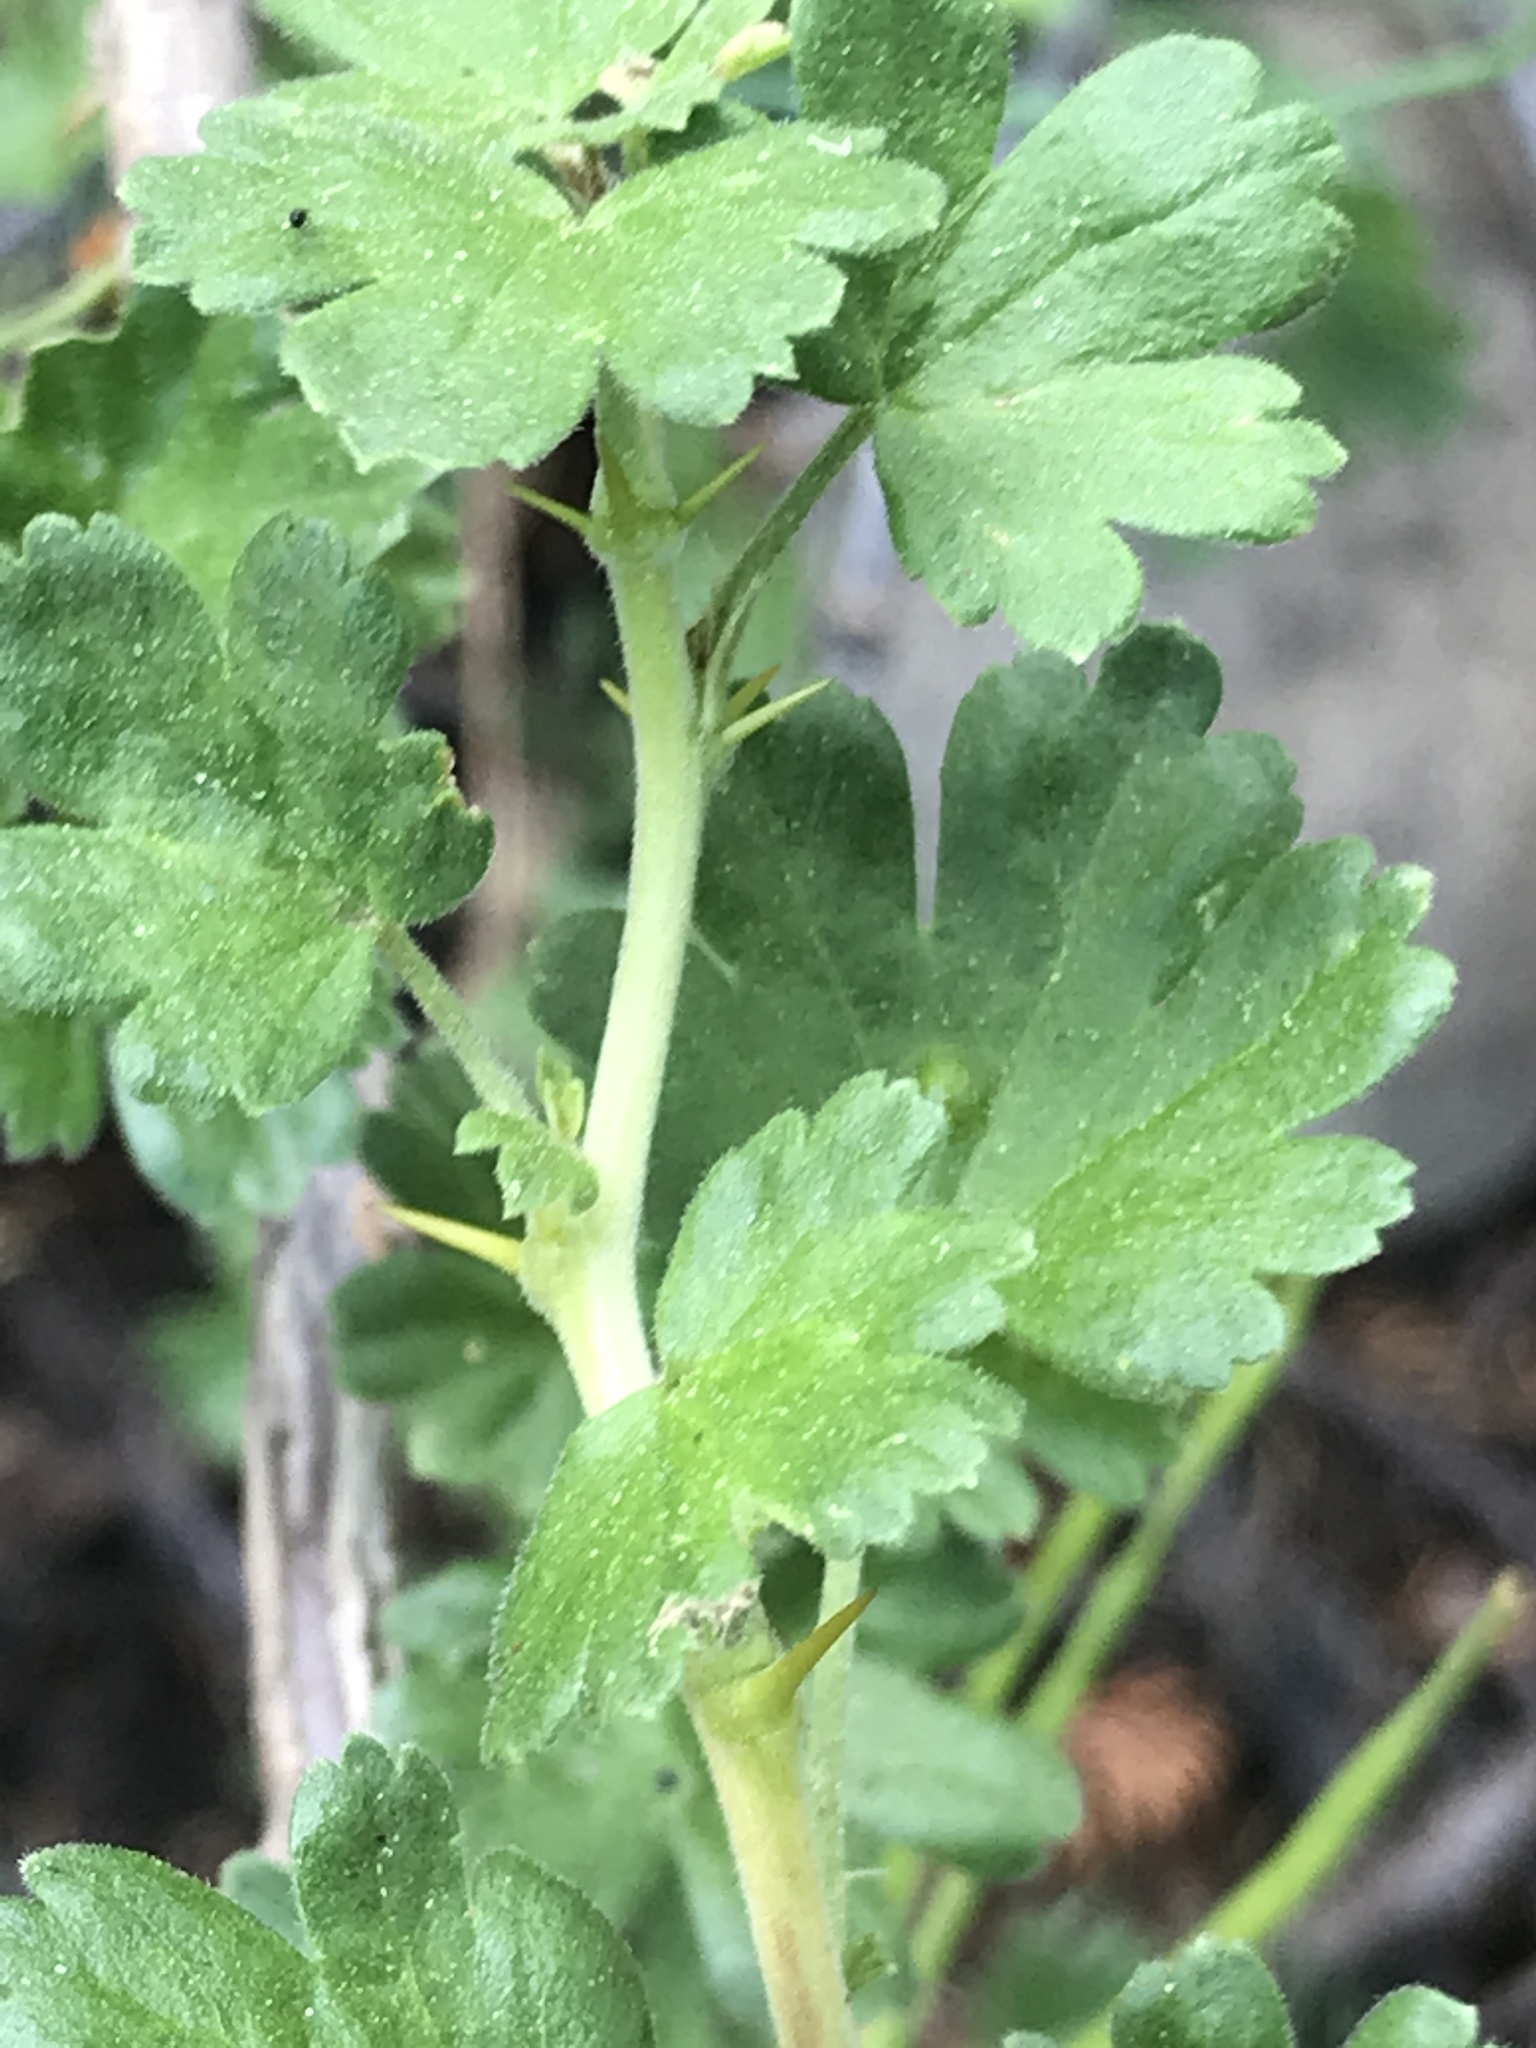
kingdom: Plantae
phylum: Tracheophyta
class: Magnoliopsida
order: Saxifragales
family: Grossulariaceae
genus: Ribes
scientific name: Ribes roezlii
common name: Sierra gooseberry
